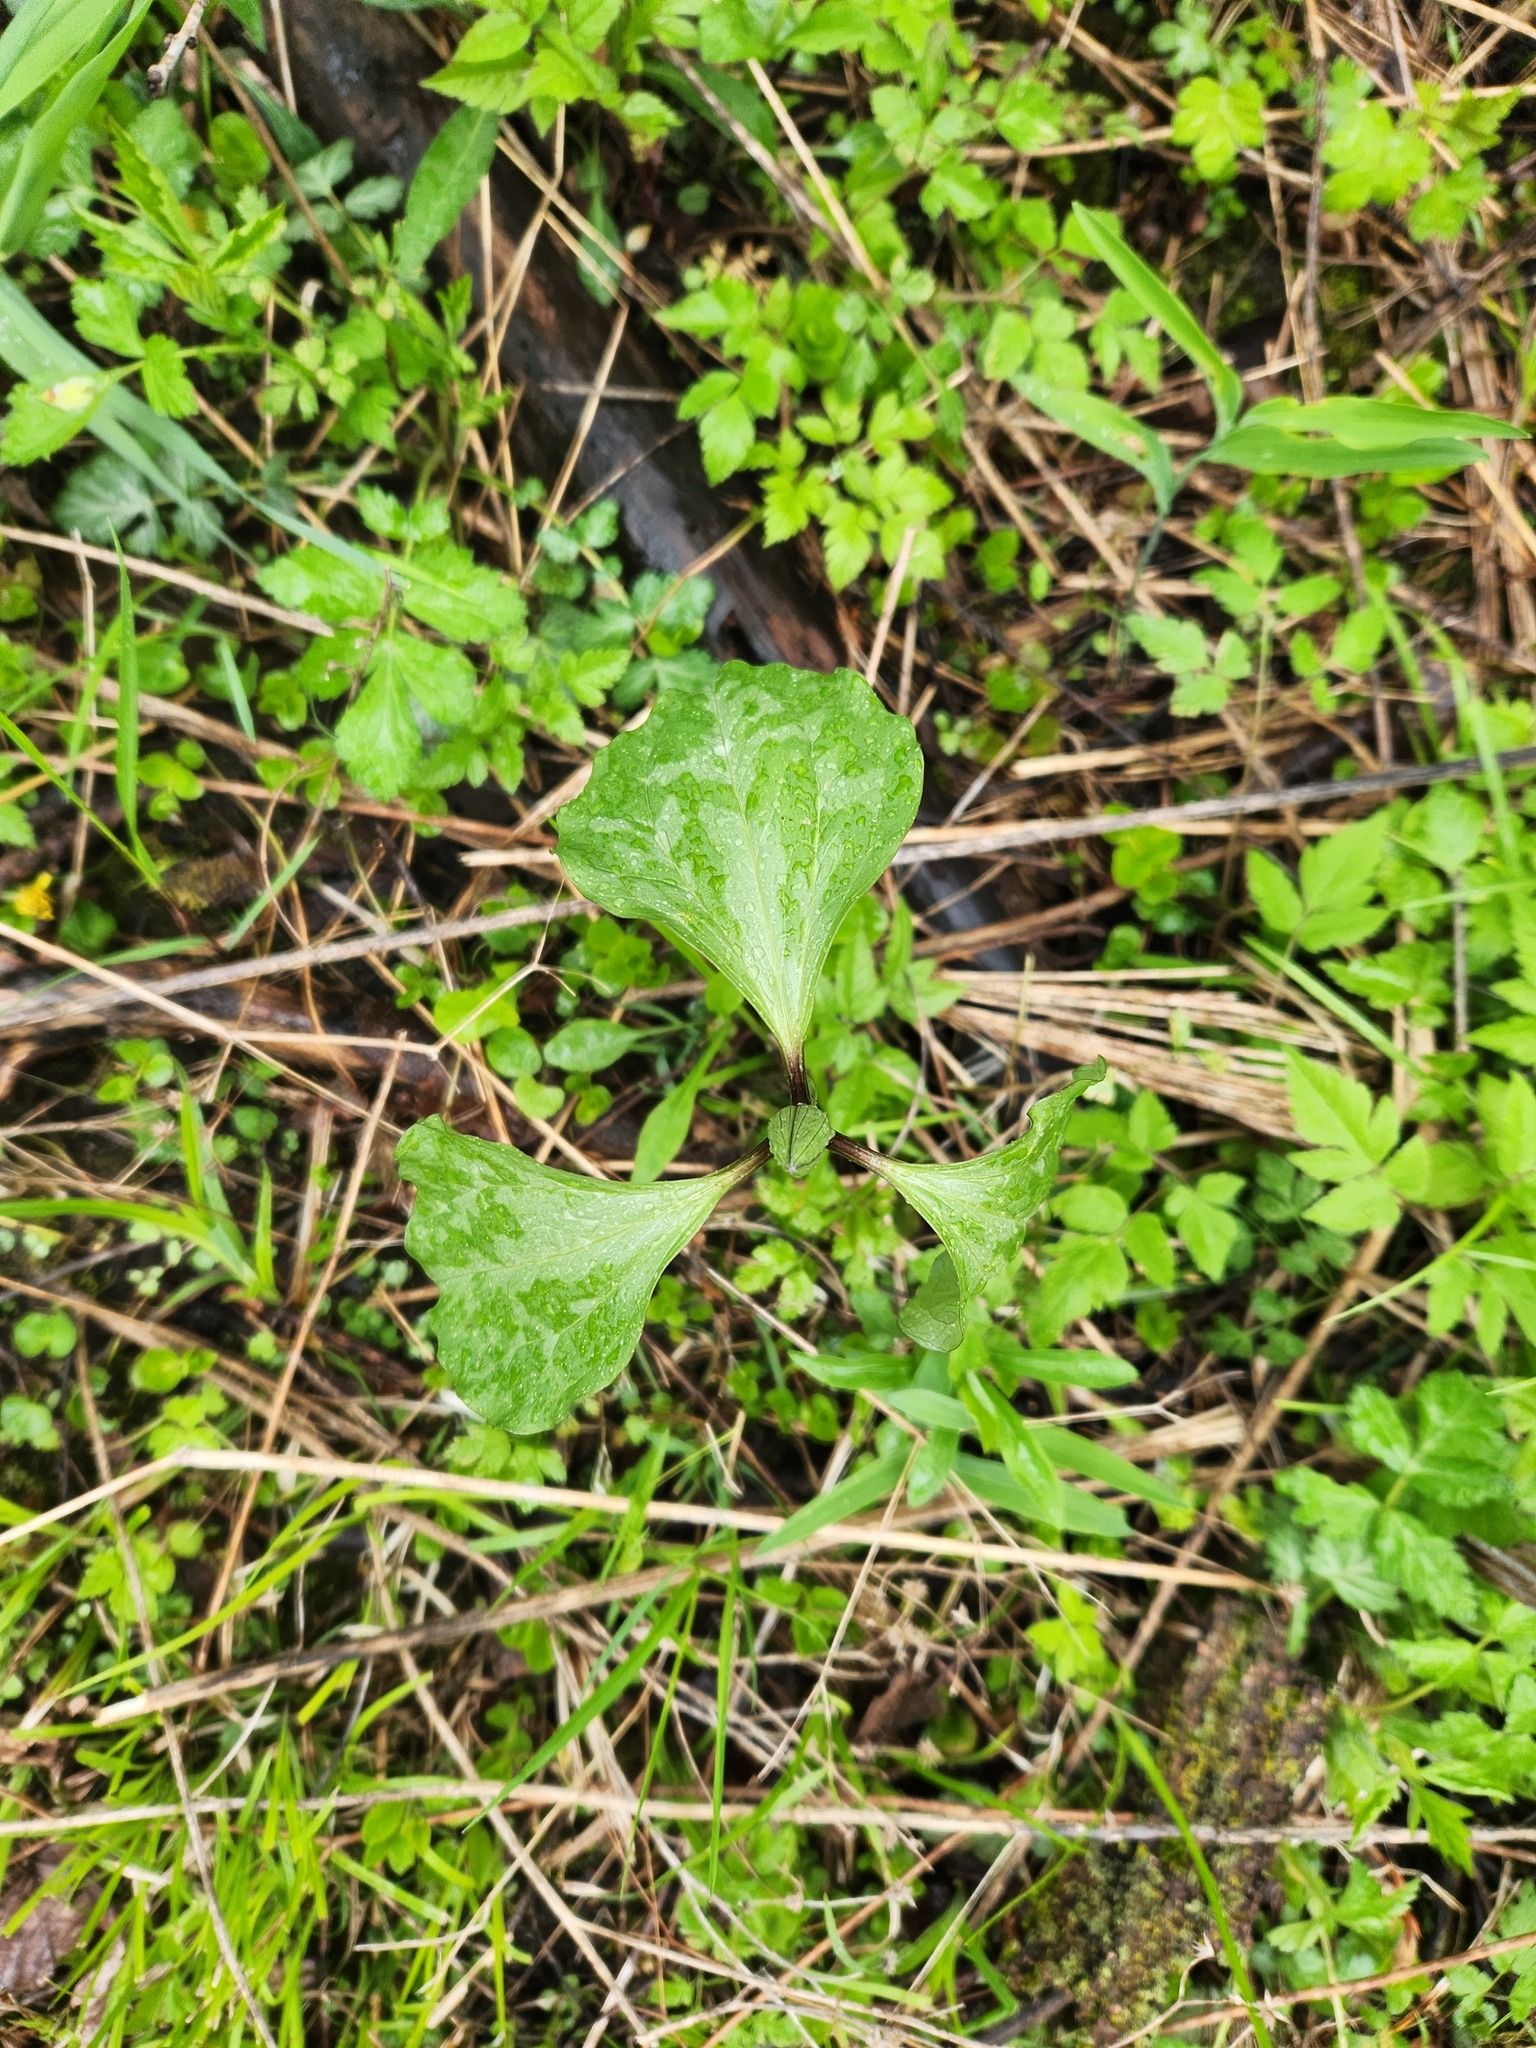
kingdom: Plantae
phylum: Tracheophyta
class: Liliopsida
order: Liliales
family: Melanthiaceae
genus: Trillium
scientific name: Trillium recurvatum
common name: Bloody butcher
